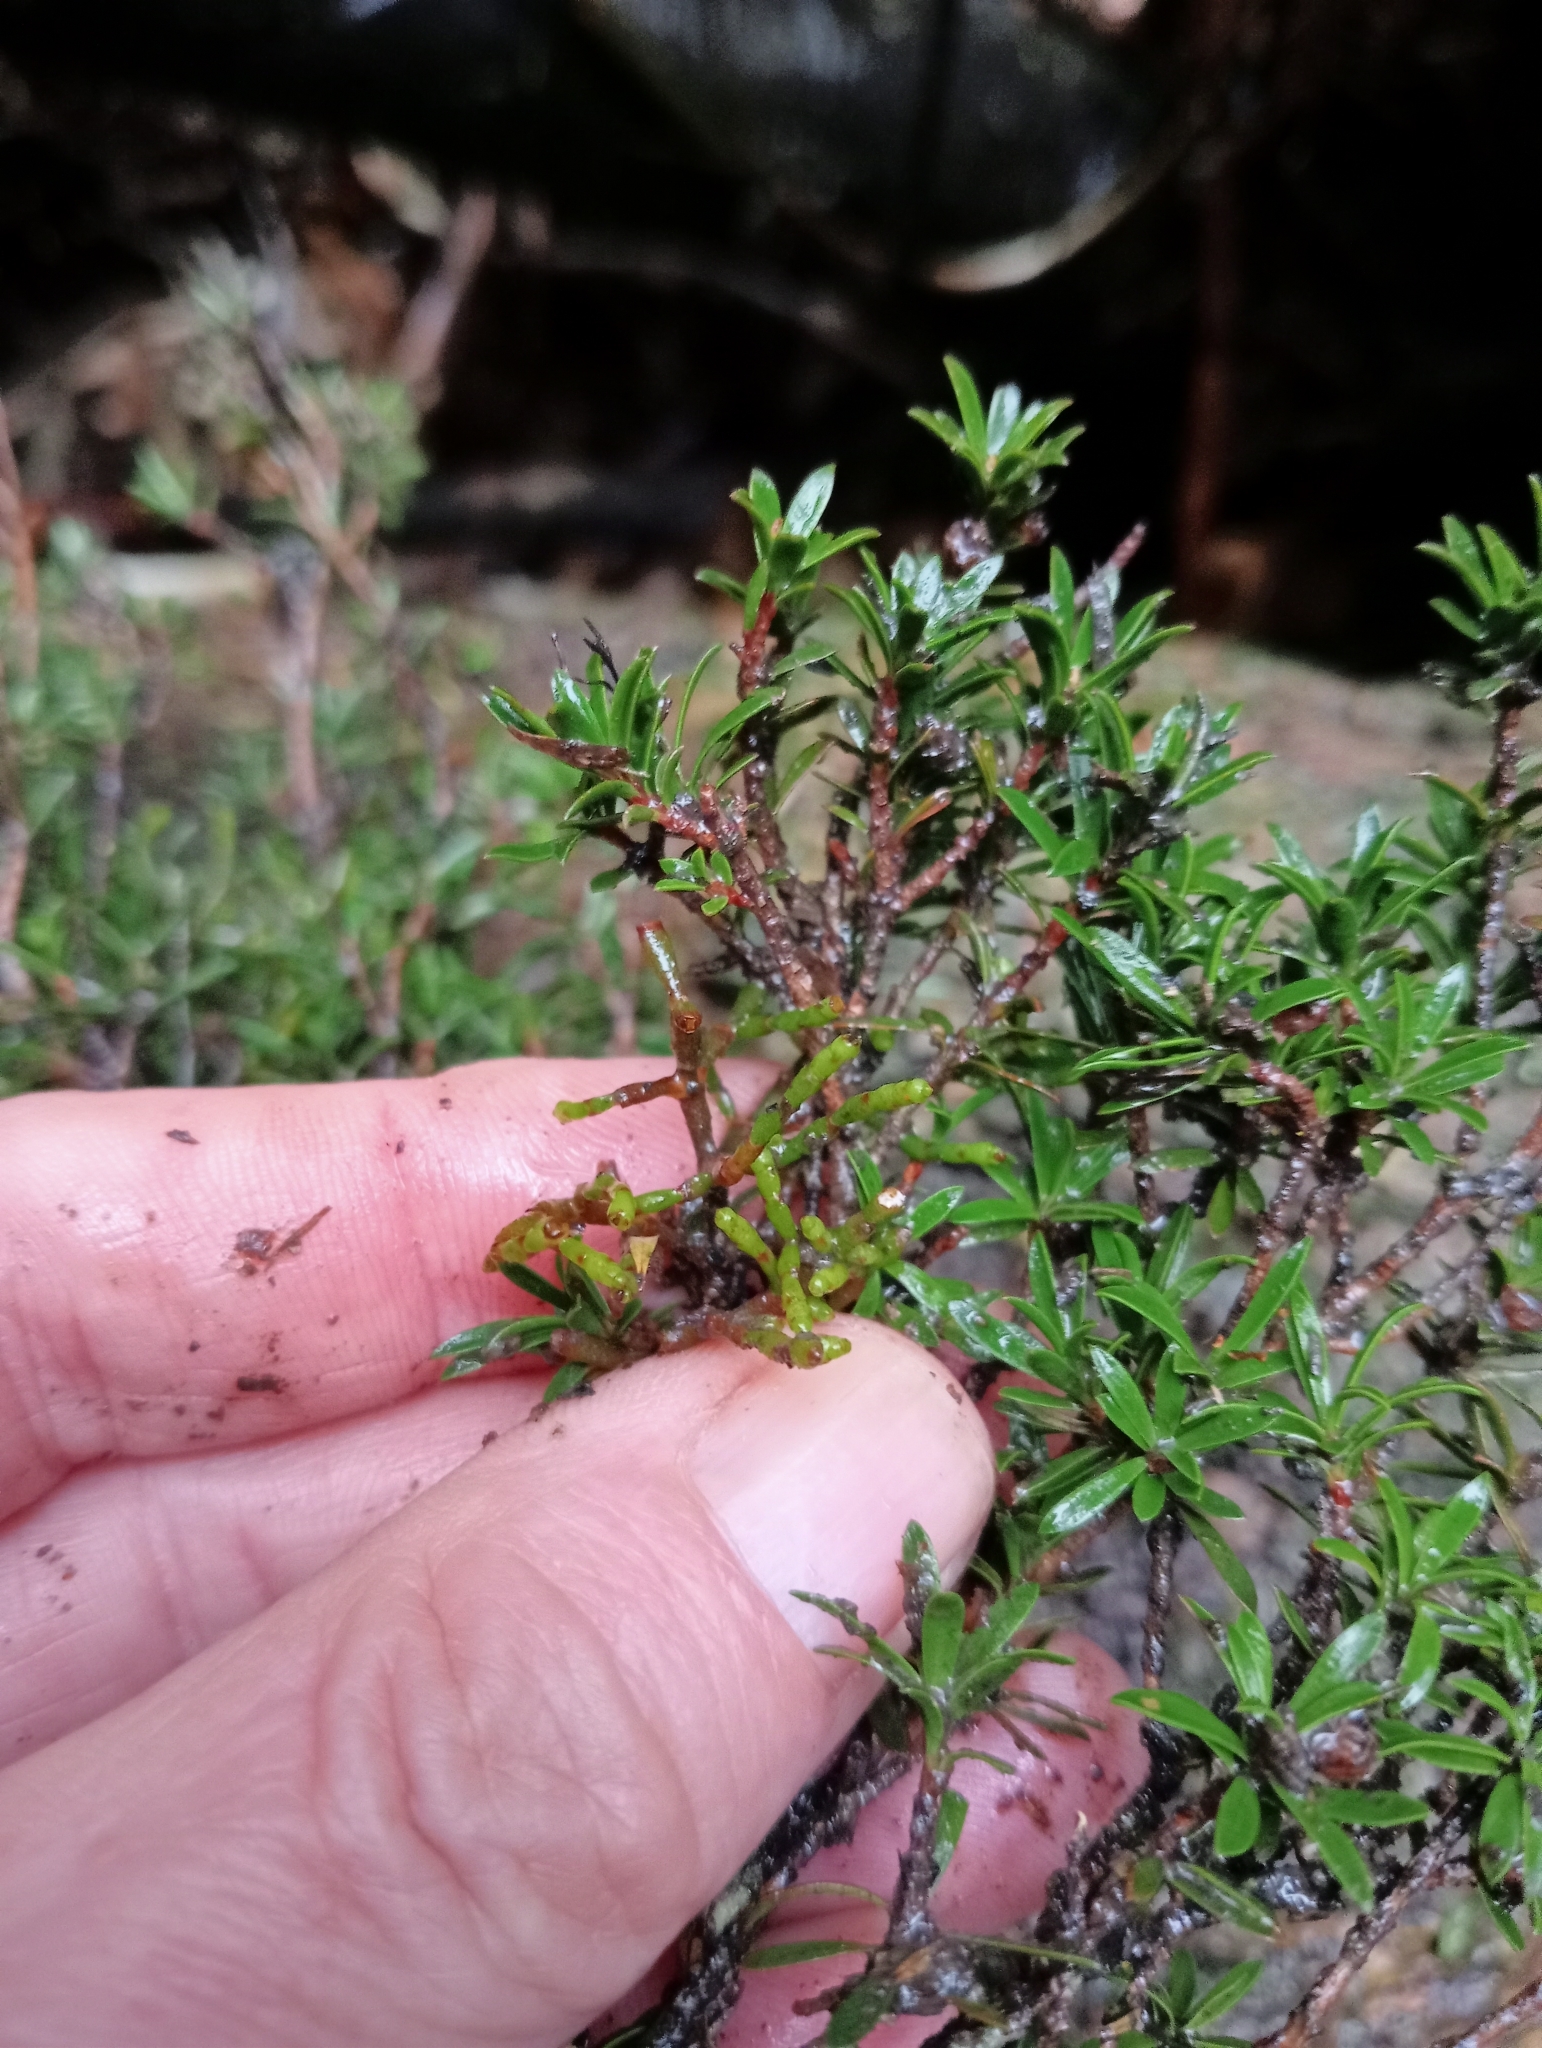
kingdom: Plantae
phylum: Tracheophyta
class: Magnoliopsida
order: Santalales
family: Viscaceae
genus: Korthalsella
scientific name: Korthalsella salicornioides
